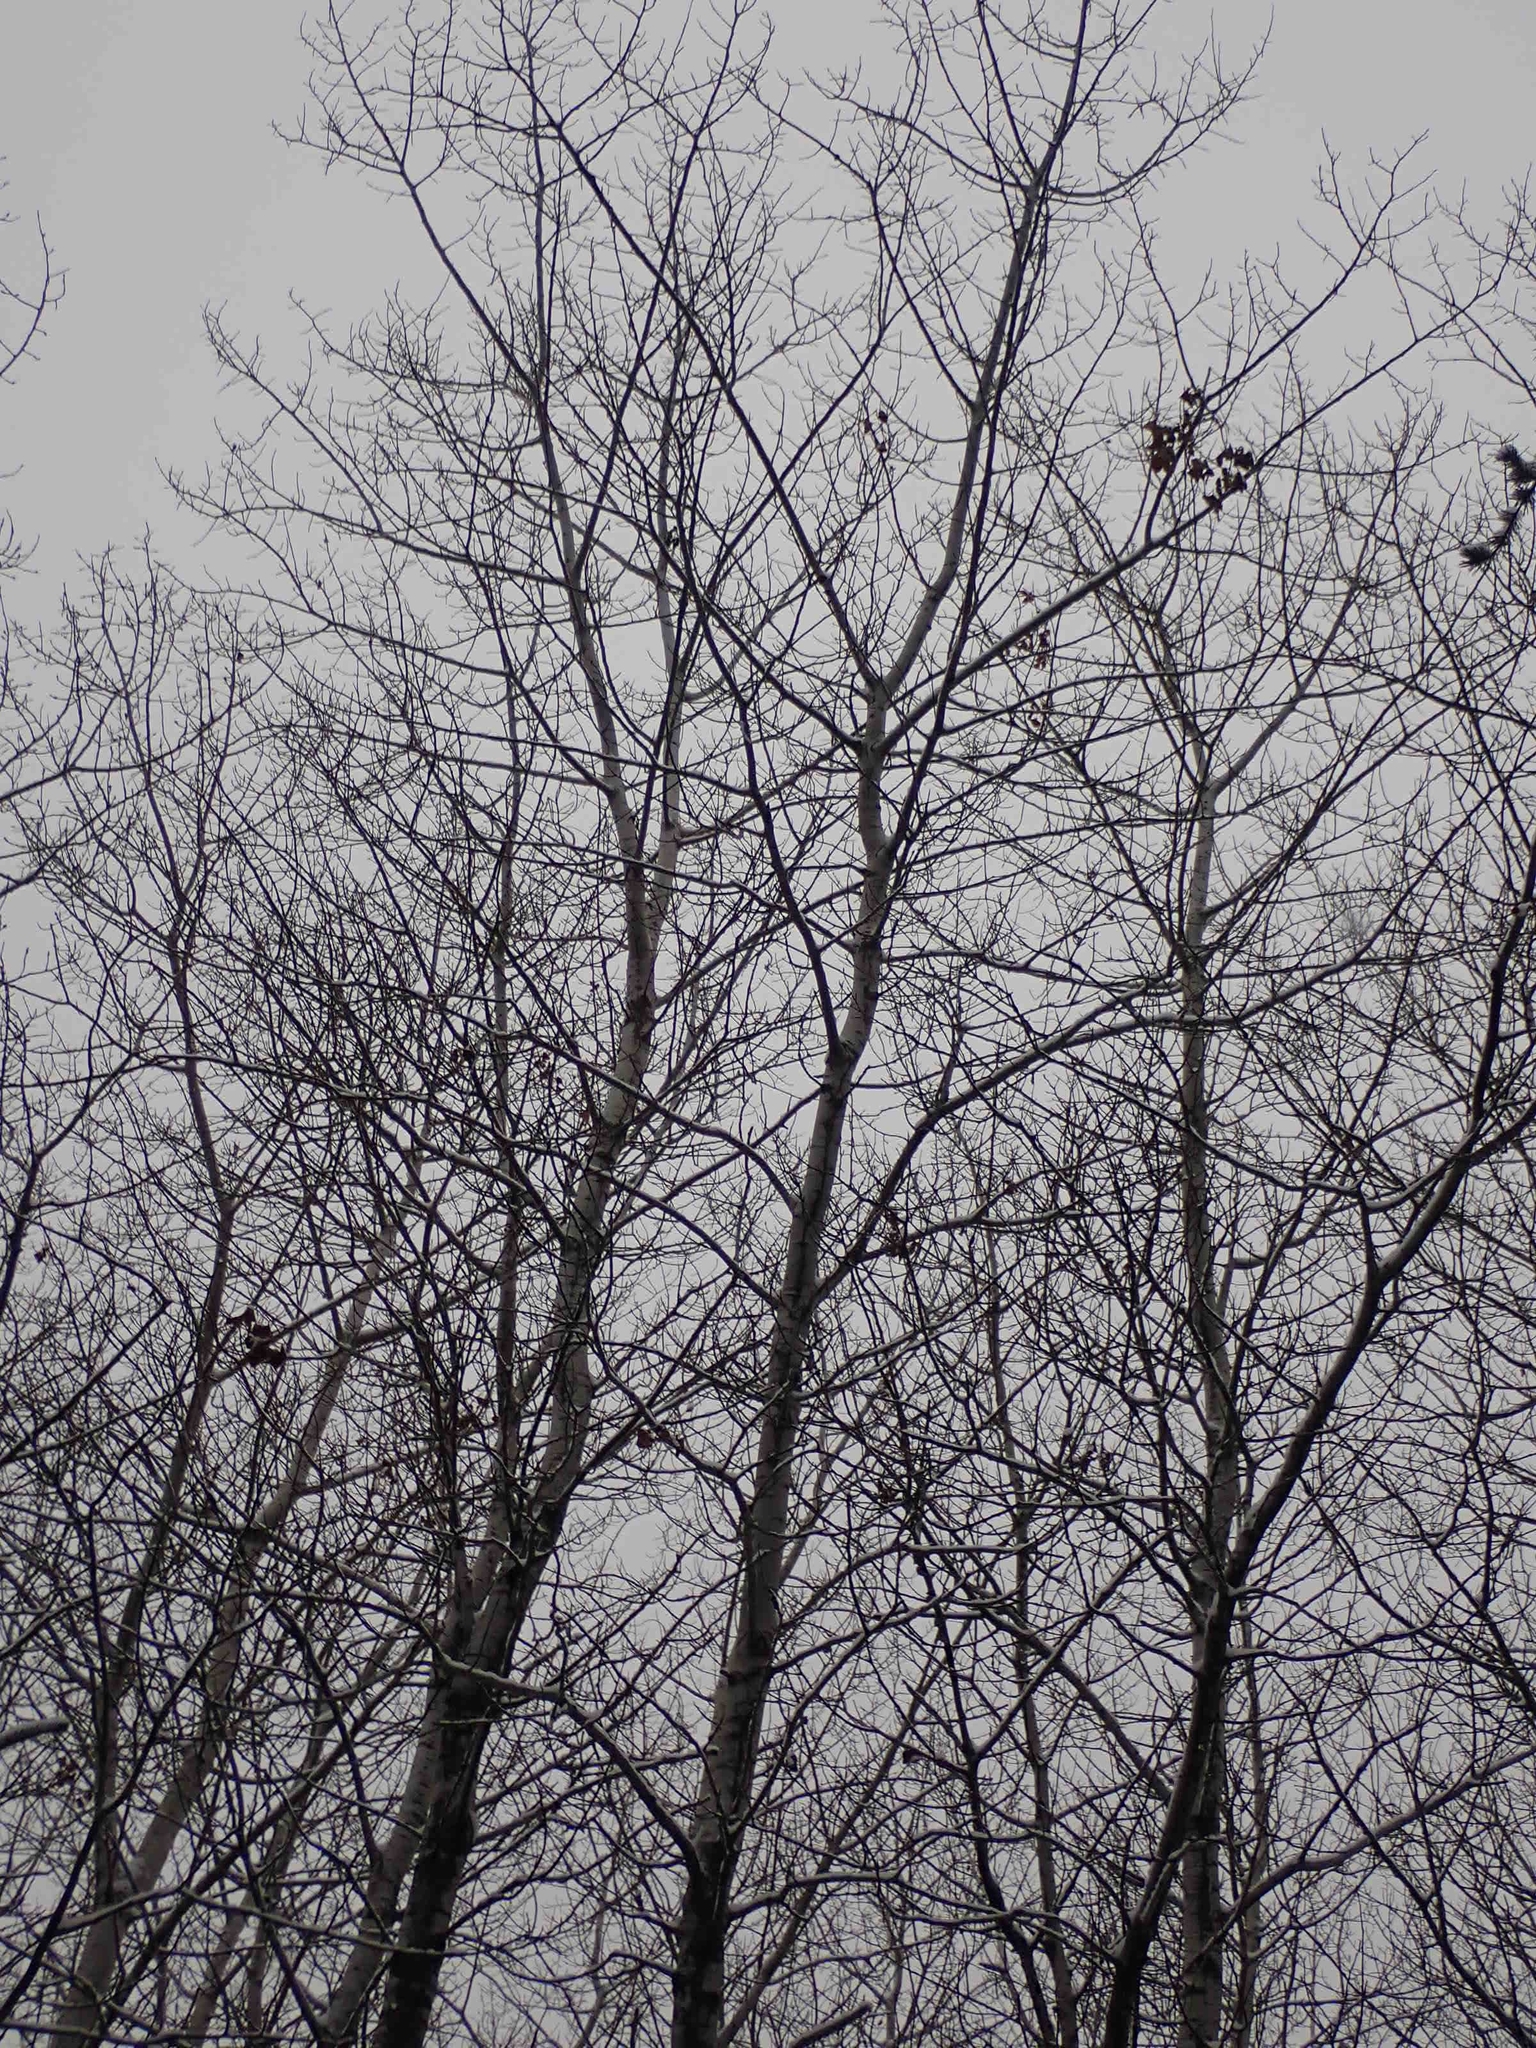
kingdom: Plantae
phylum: Tracheophyta
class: Magnoliopsida
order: Malpighiales
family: Salicaceae
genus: Populus
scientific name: Populus tremuloides
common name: Quaking aspen
